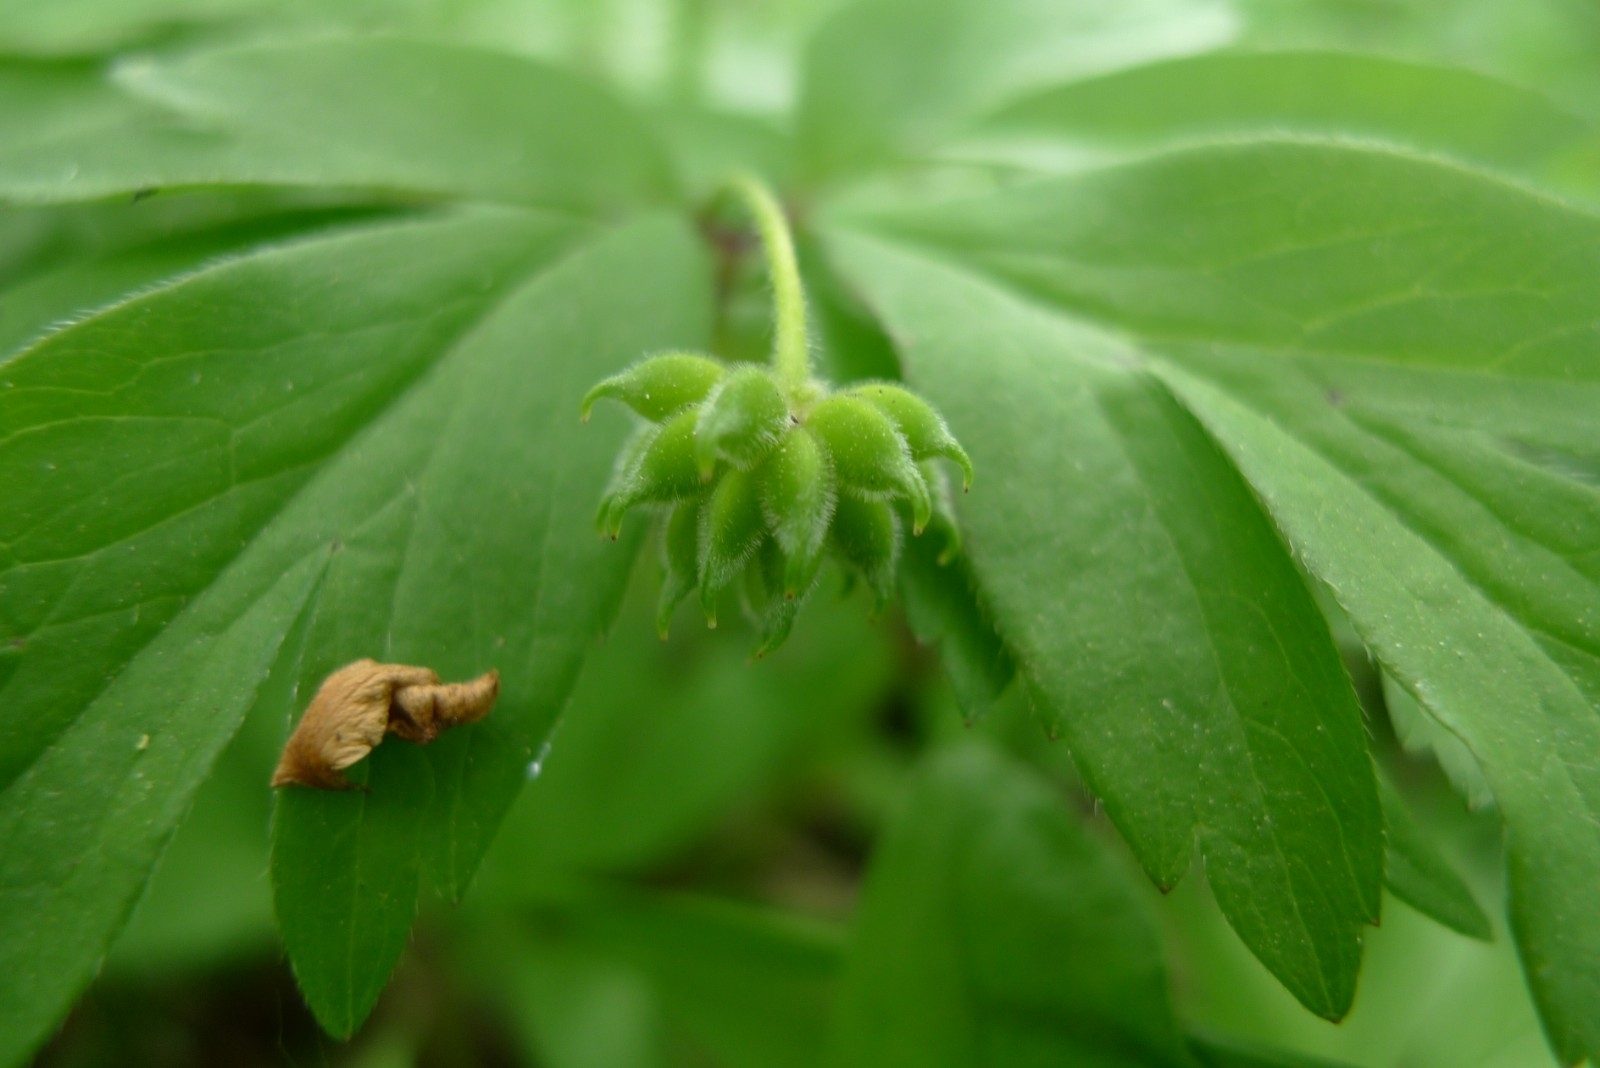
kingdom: Plantae
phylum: Tracheophyta
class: Magnoliopsida
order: Ranunculales
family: Ranunculaceae
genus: Anemone
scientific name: Anemone nemorosa
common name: Wood anemone
